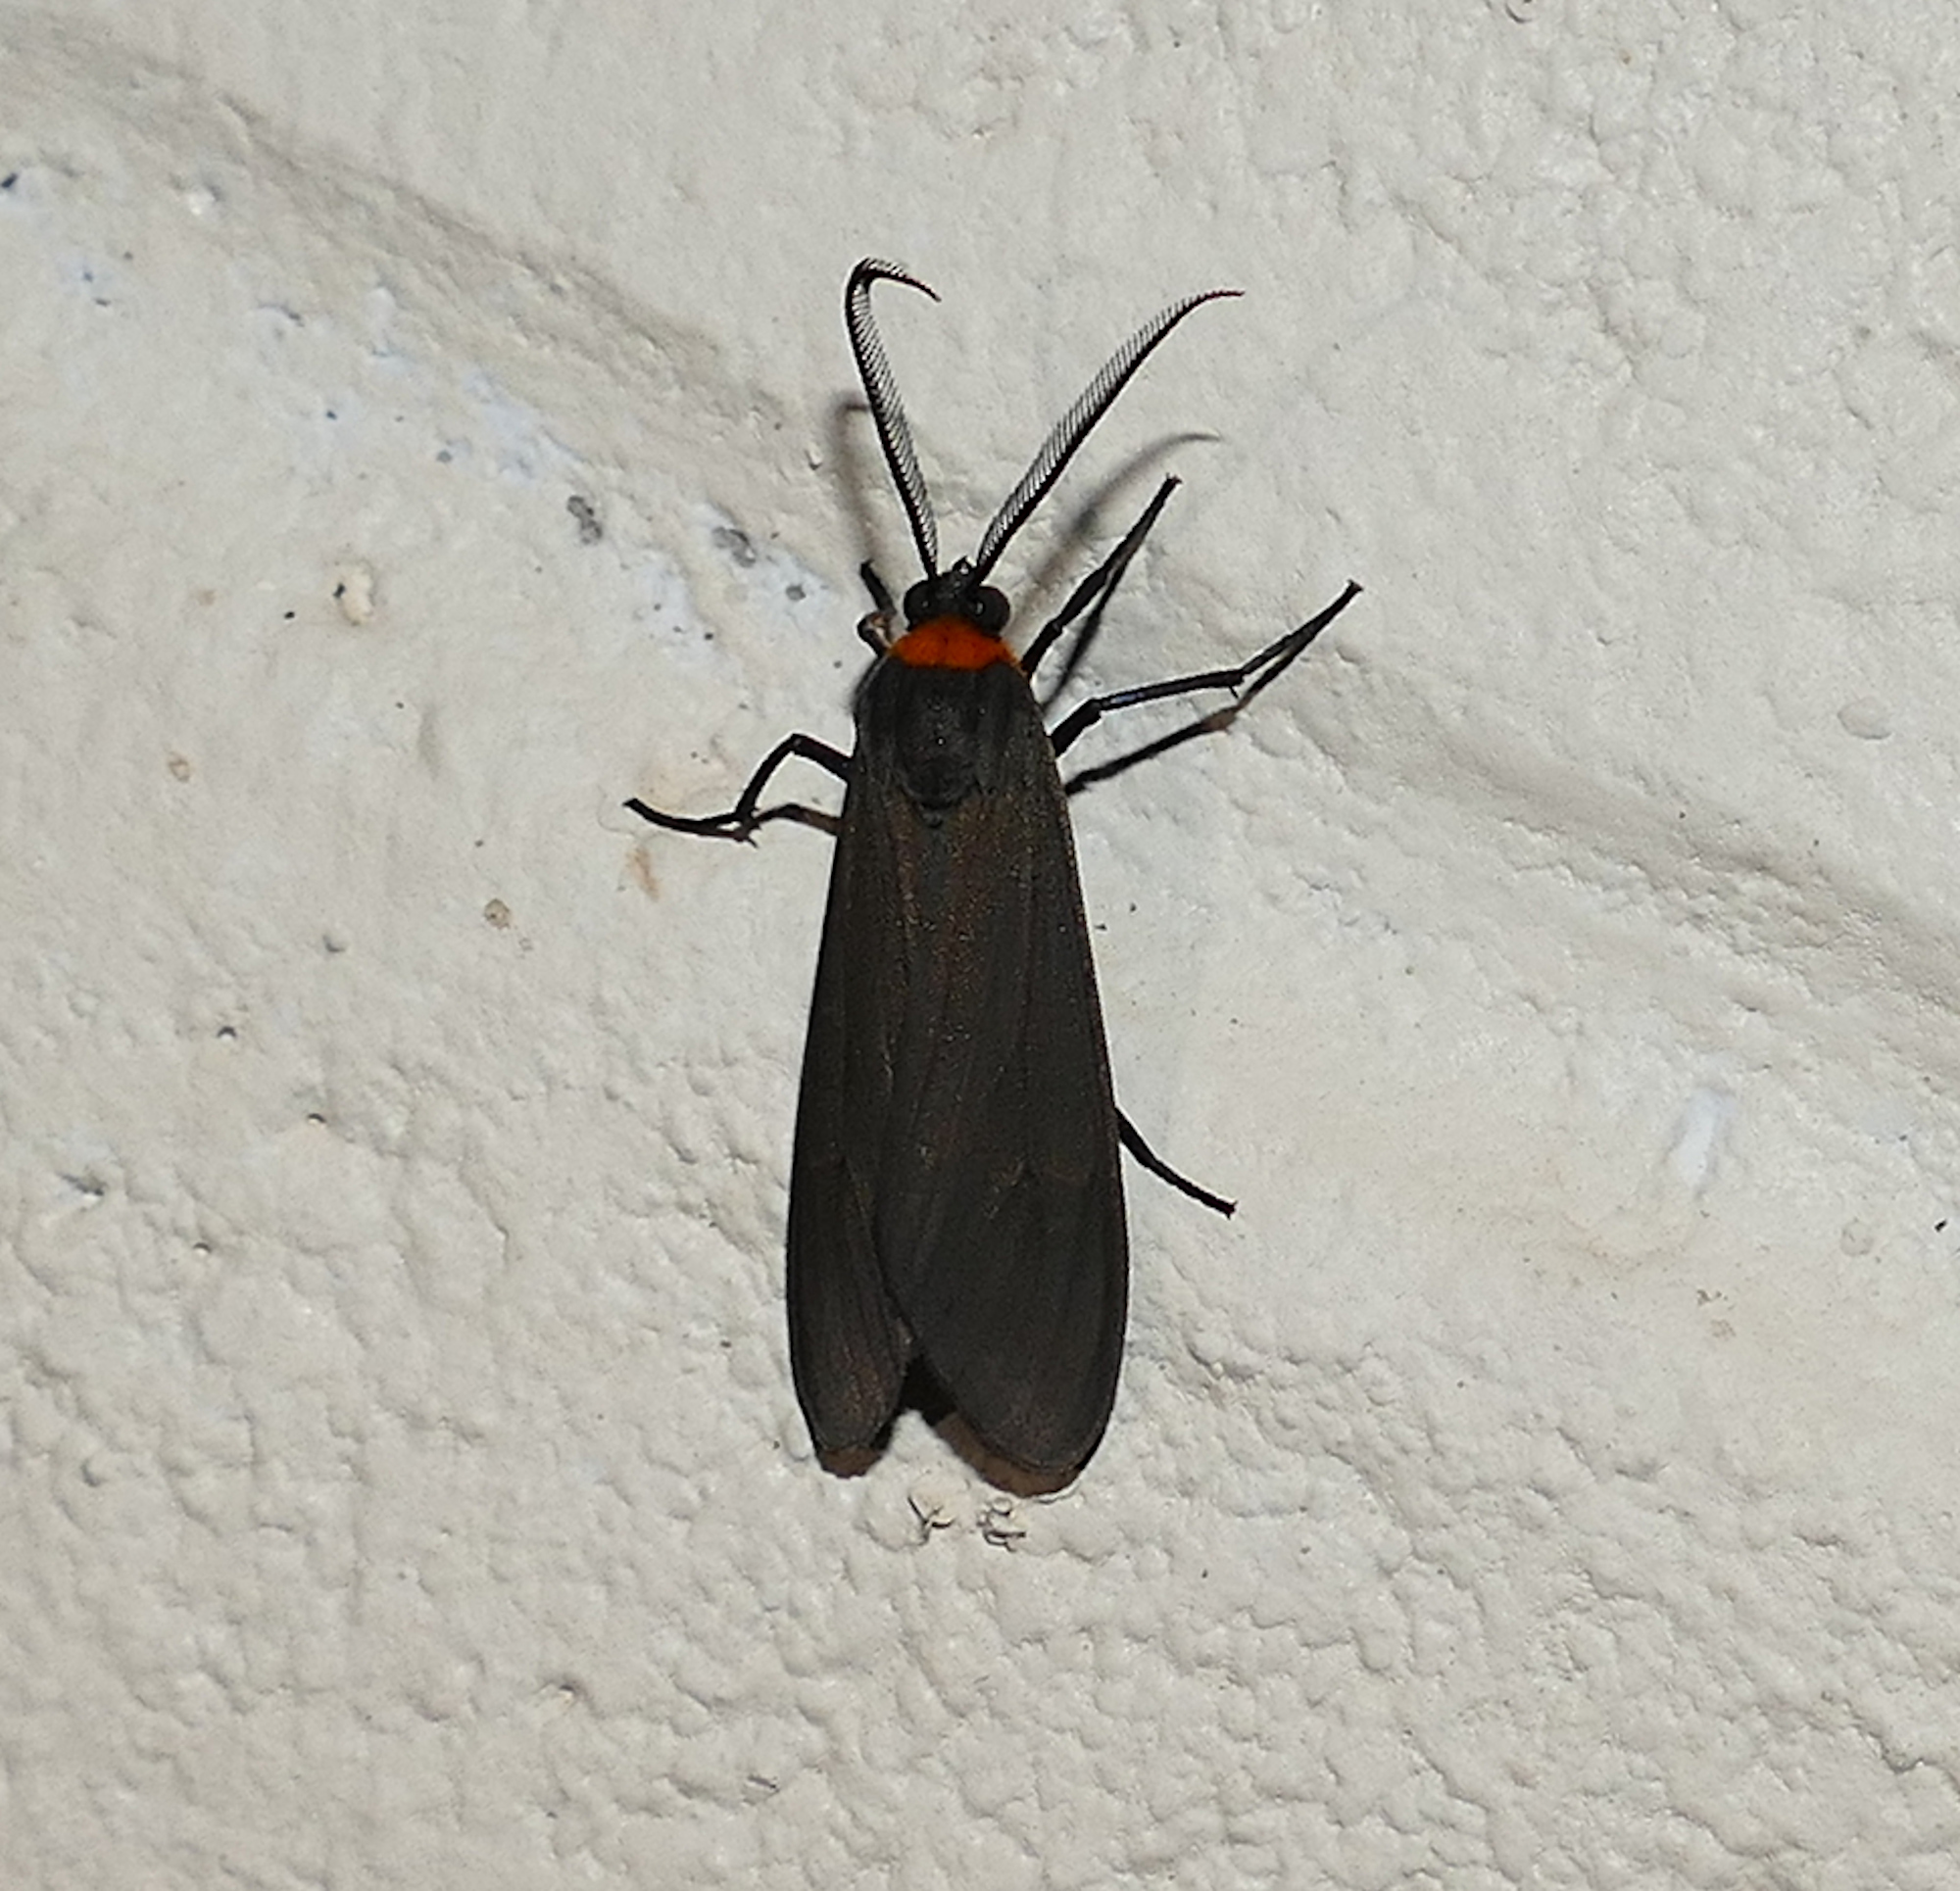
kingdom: Animalia
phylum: Arthropoda
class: Insecta
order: Lepidoptera
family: Erebidae
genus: Cisseps
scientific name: Cisseps fulvicollis
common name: Yellow-collared scape moth
